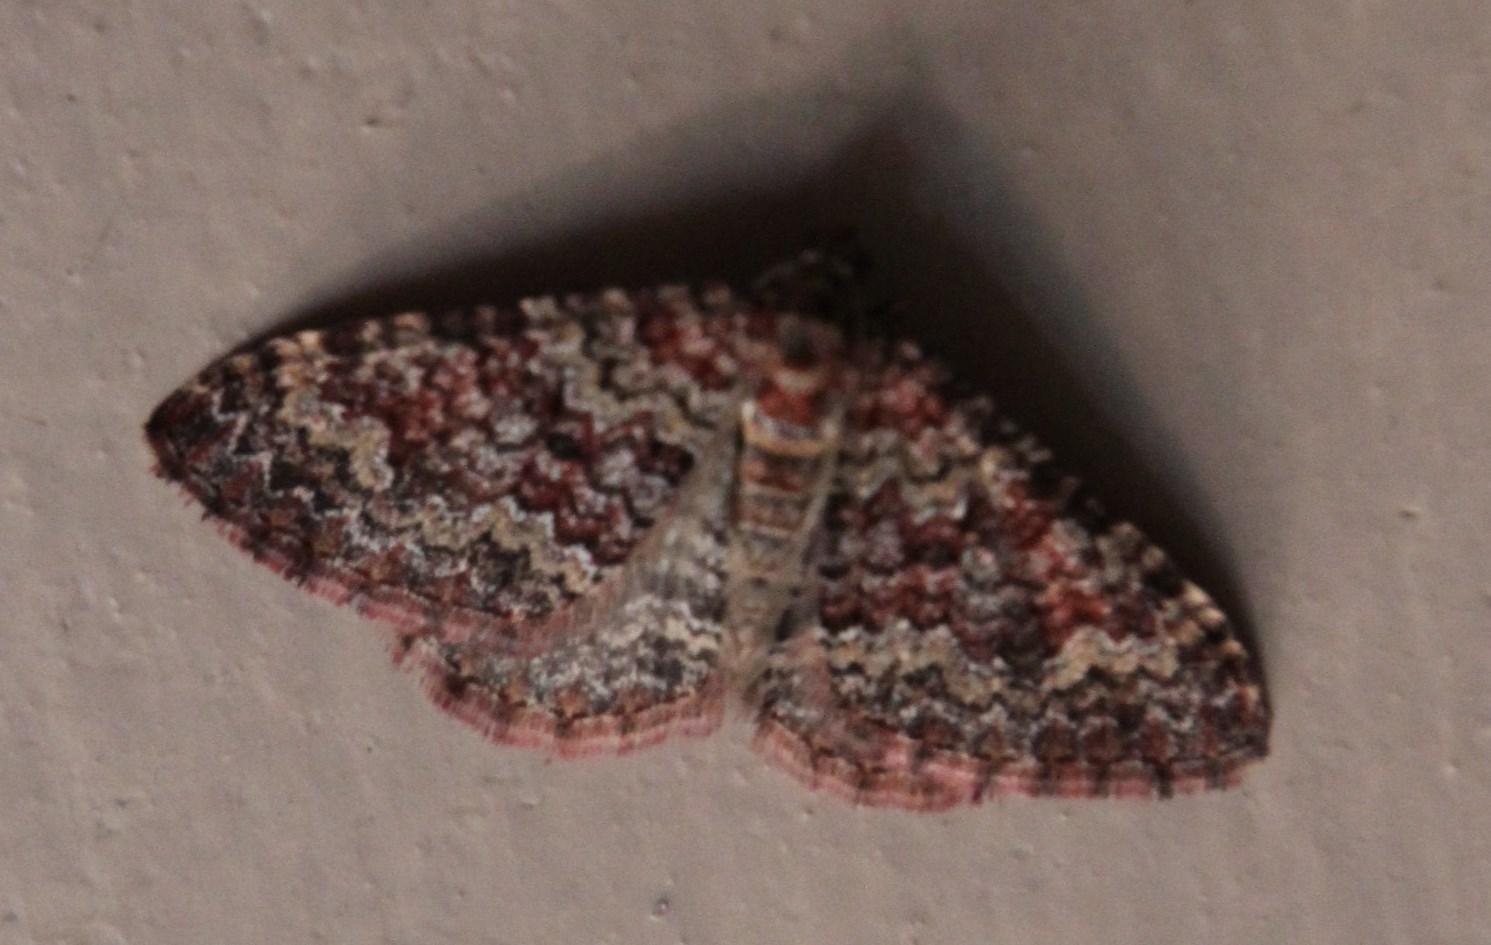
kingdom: Animalia
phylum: Arthropoda
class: Insecta
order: Lepidoptera
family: Geometridae
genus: Mimoclystia
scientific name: Mimoclystia undulosata
